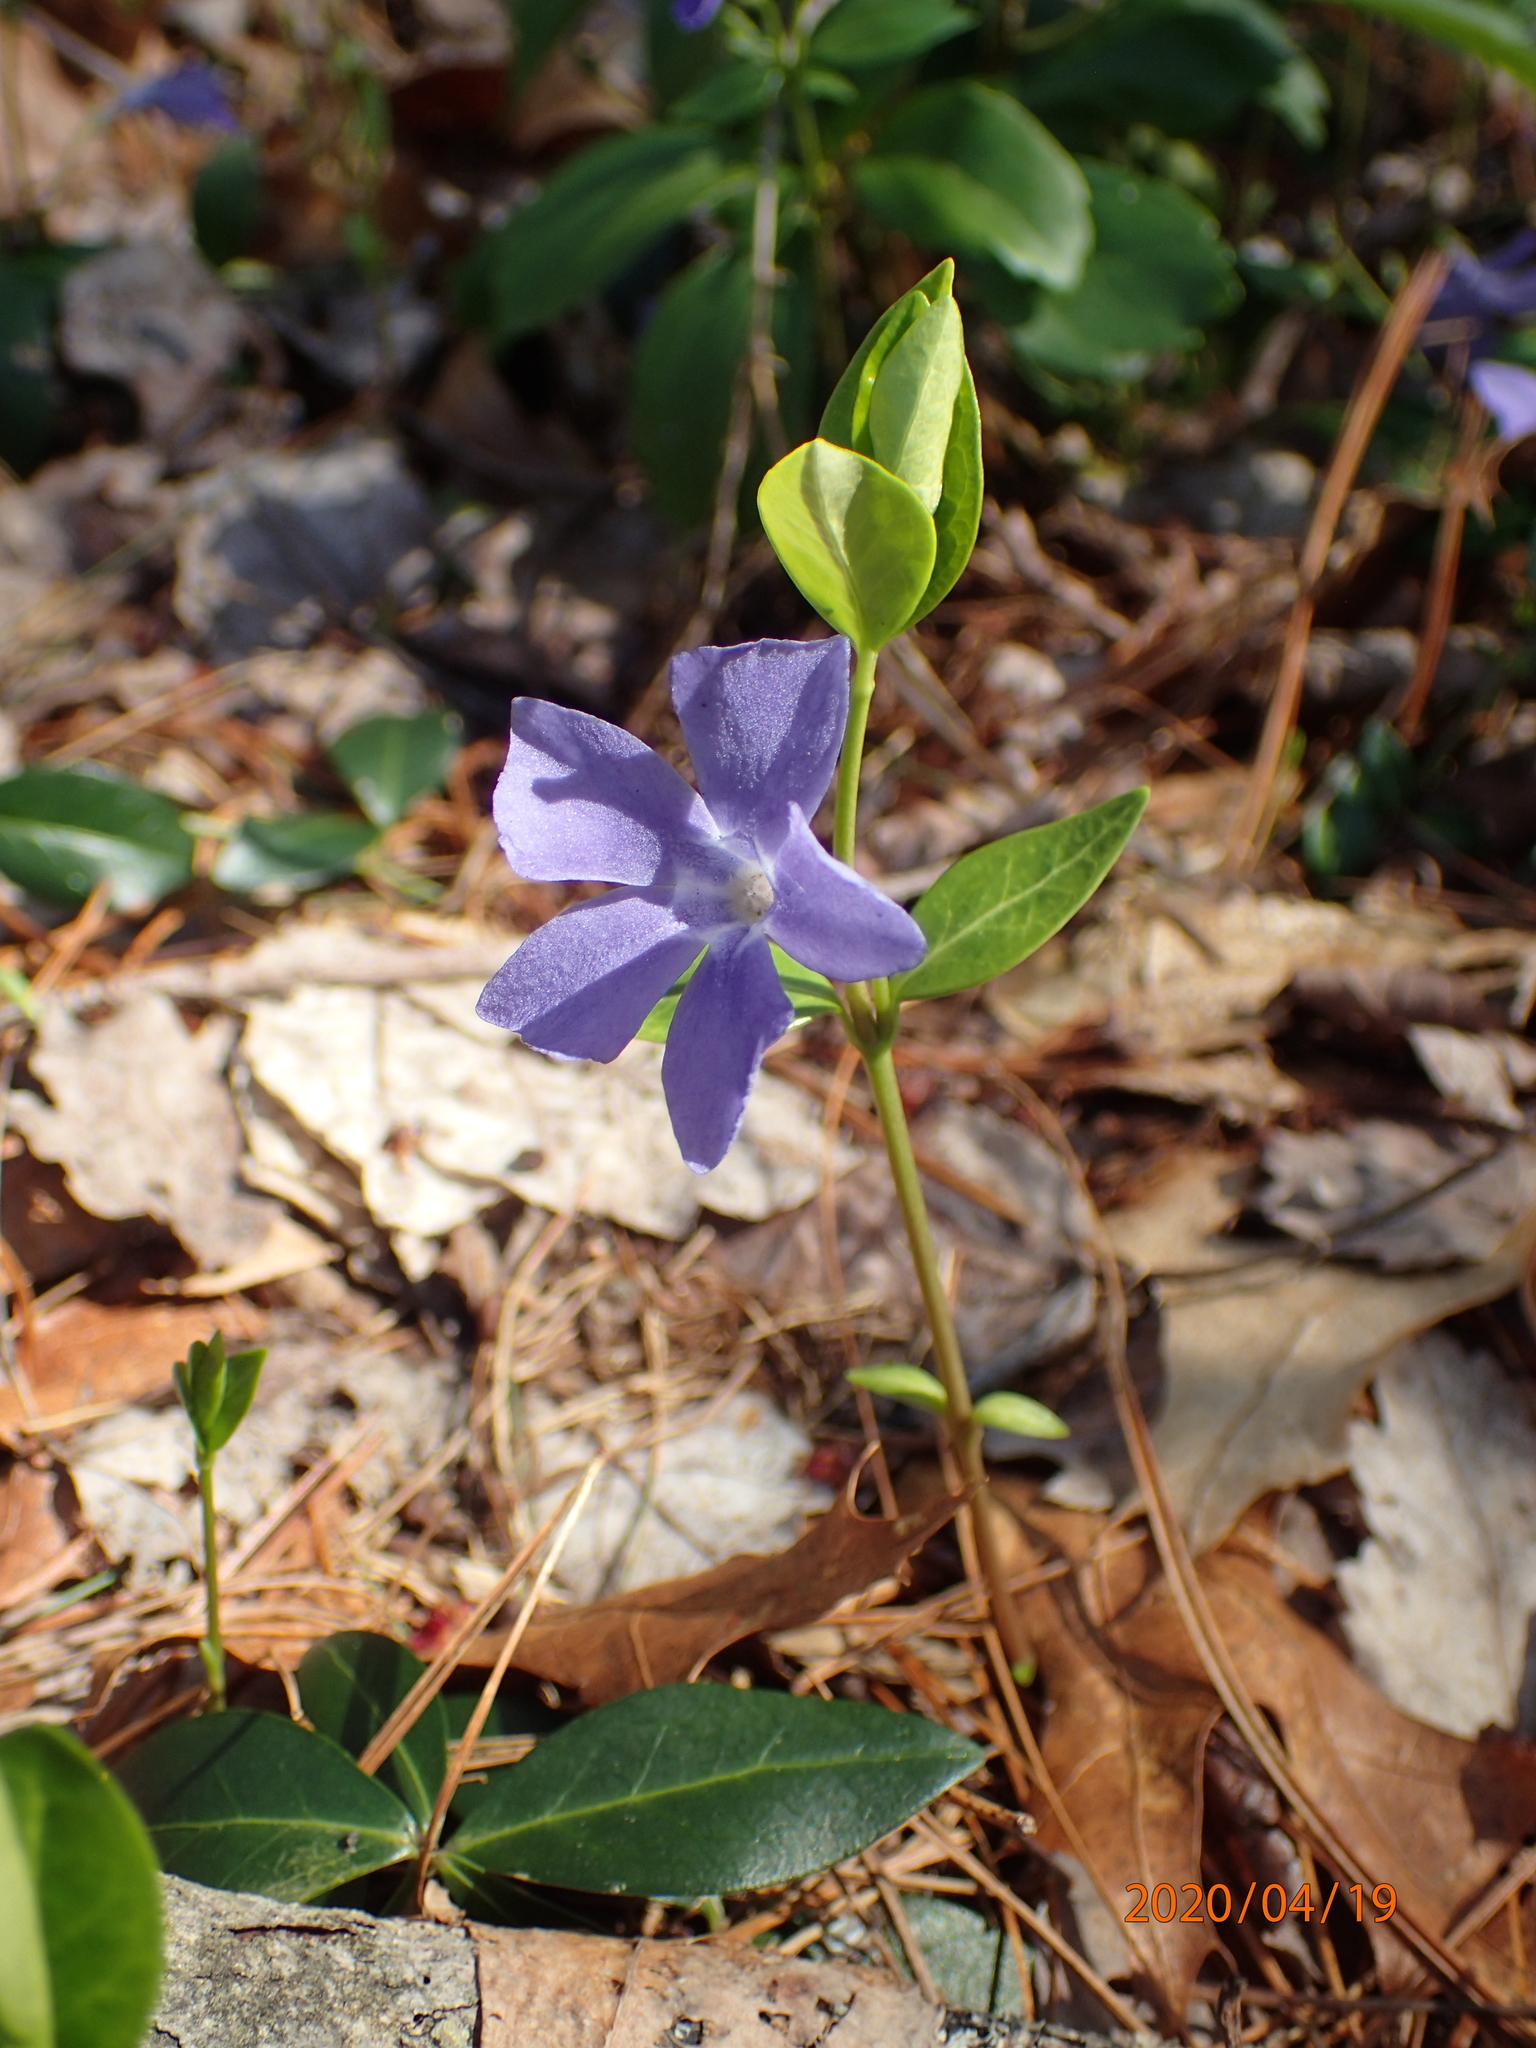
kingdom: Plantae
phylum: Tracheophyta
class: Magnoliopsida
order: Gentianales
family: Apocynaceae
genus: Vinca
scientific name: Vinca minor
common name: Lesser periwinkle
